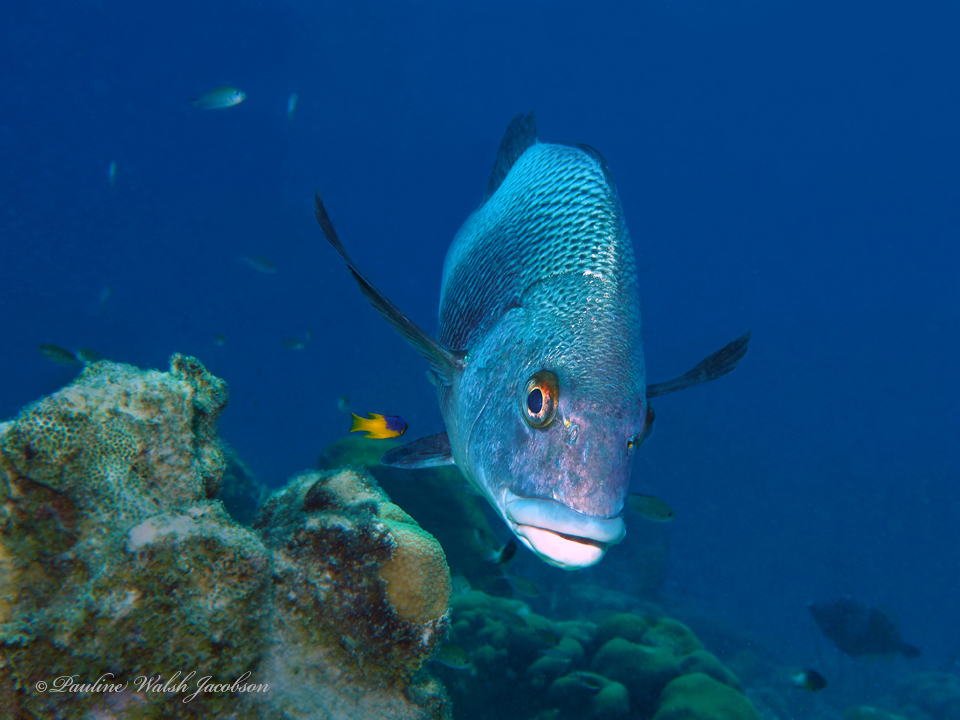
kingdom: Animalia
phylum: Chordata
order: Perciformes
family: Haemulidae
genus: Anisotremus
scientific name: Anisotremus surinamensis
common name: Black margate
